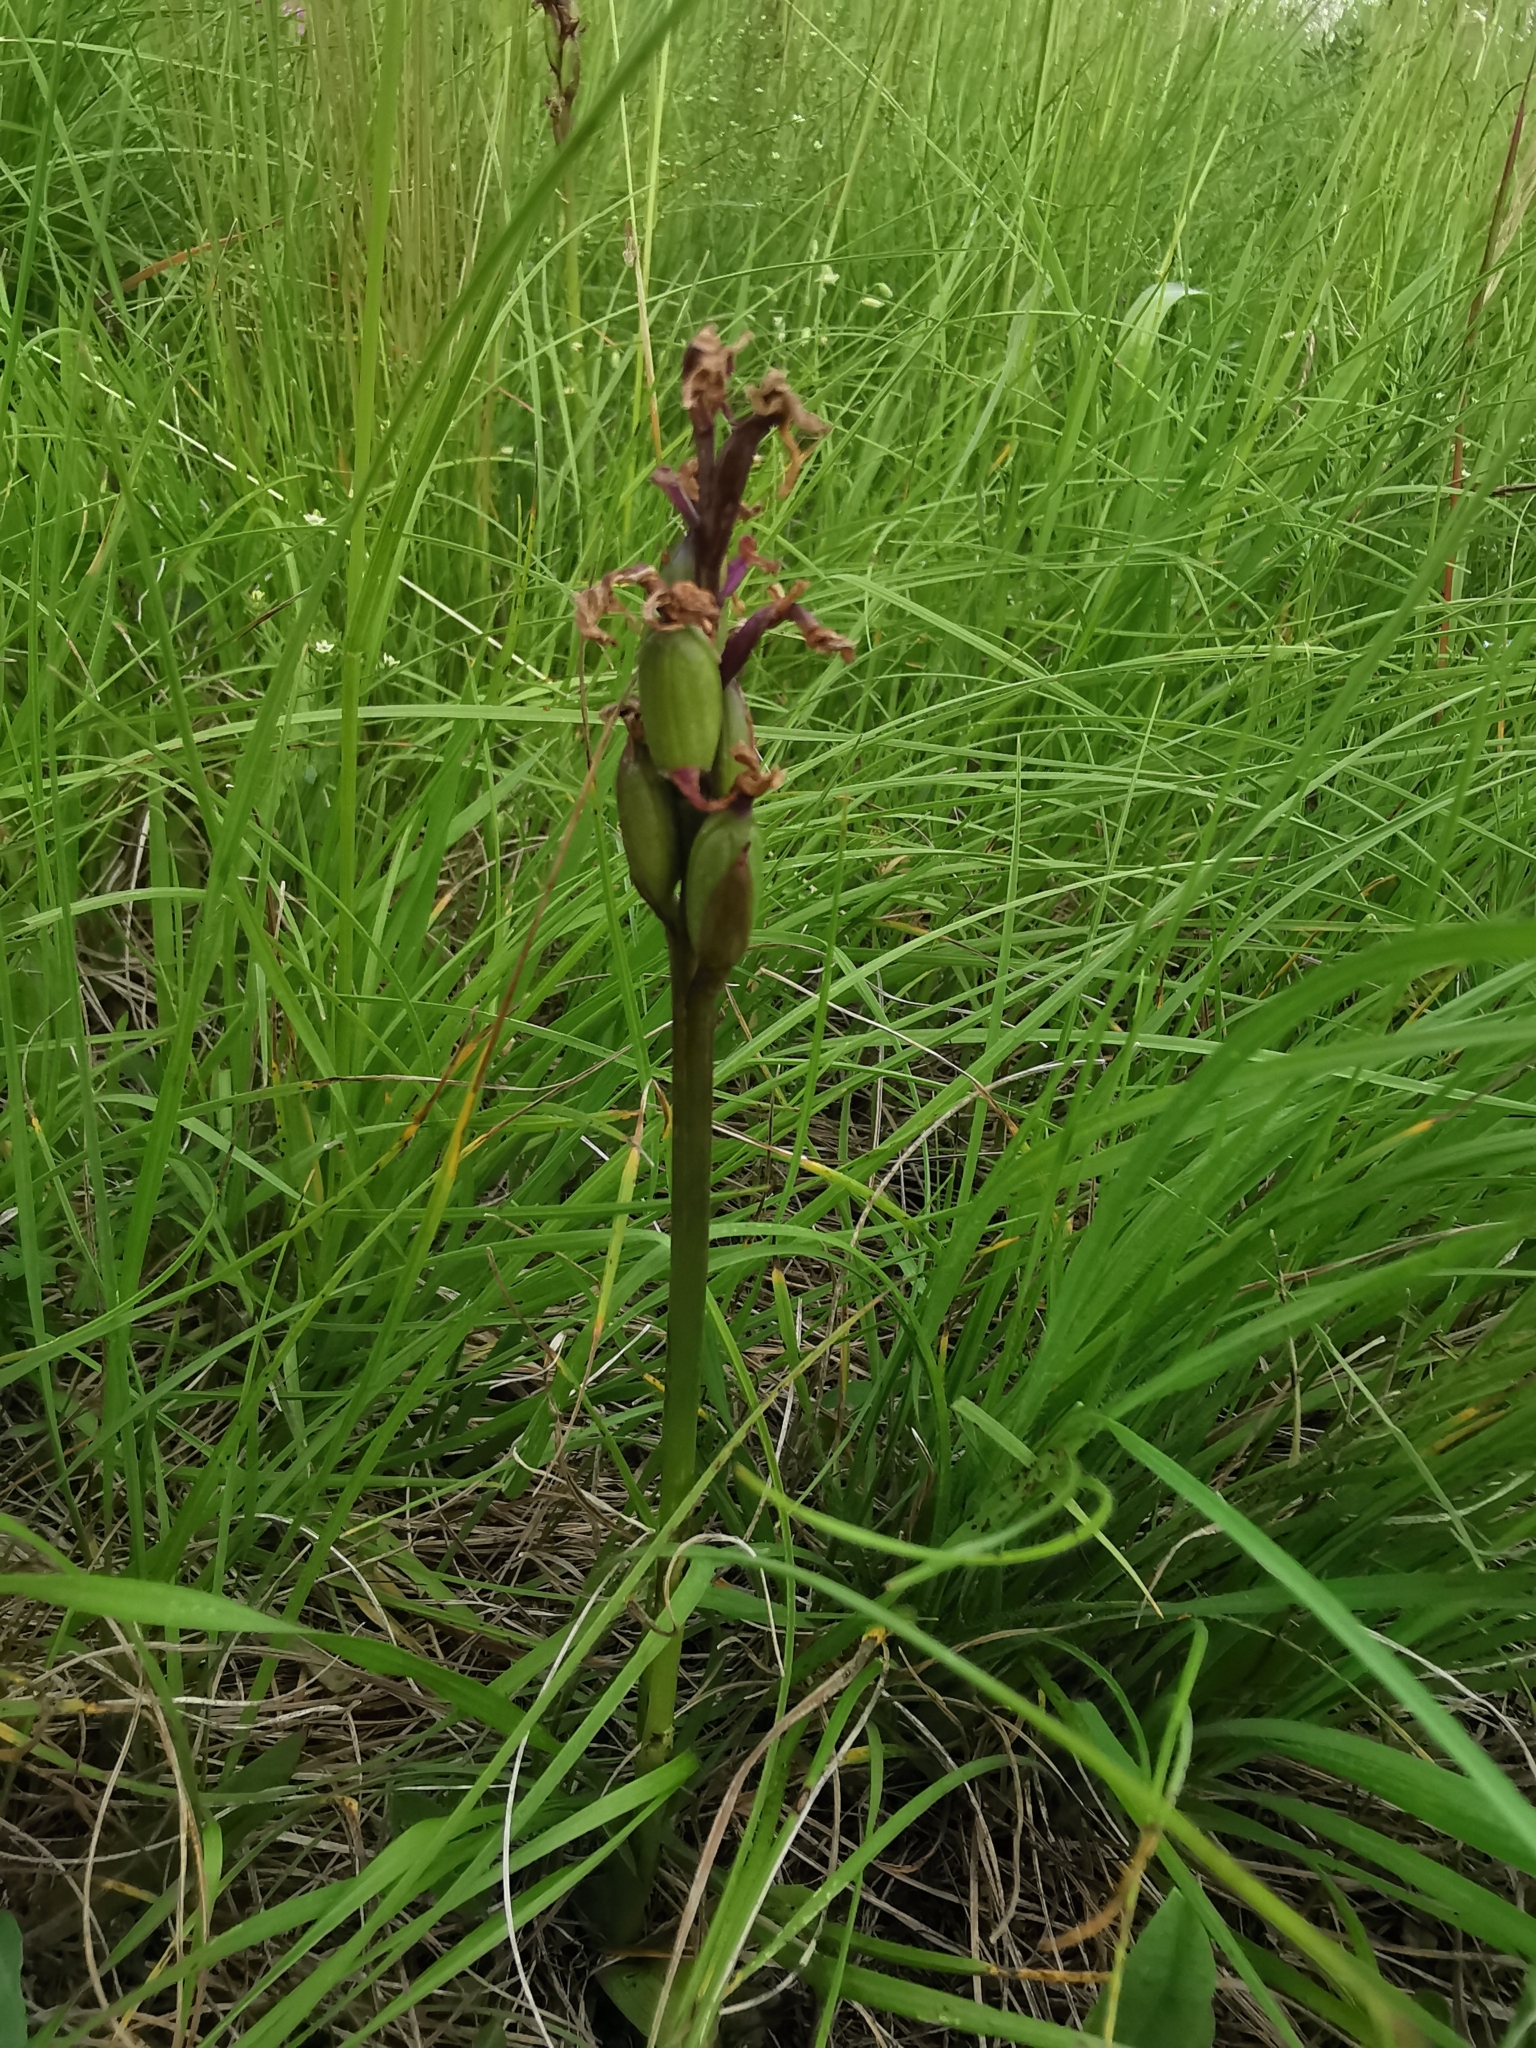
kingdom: Plantae
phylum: Tracheophyta
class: Liliopsida
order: Asparagales
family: Orchidaceae
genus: Anacamptis
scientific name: Anacamptis morio
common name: Green-winged orchid
